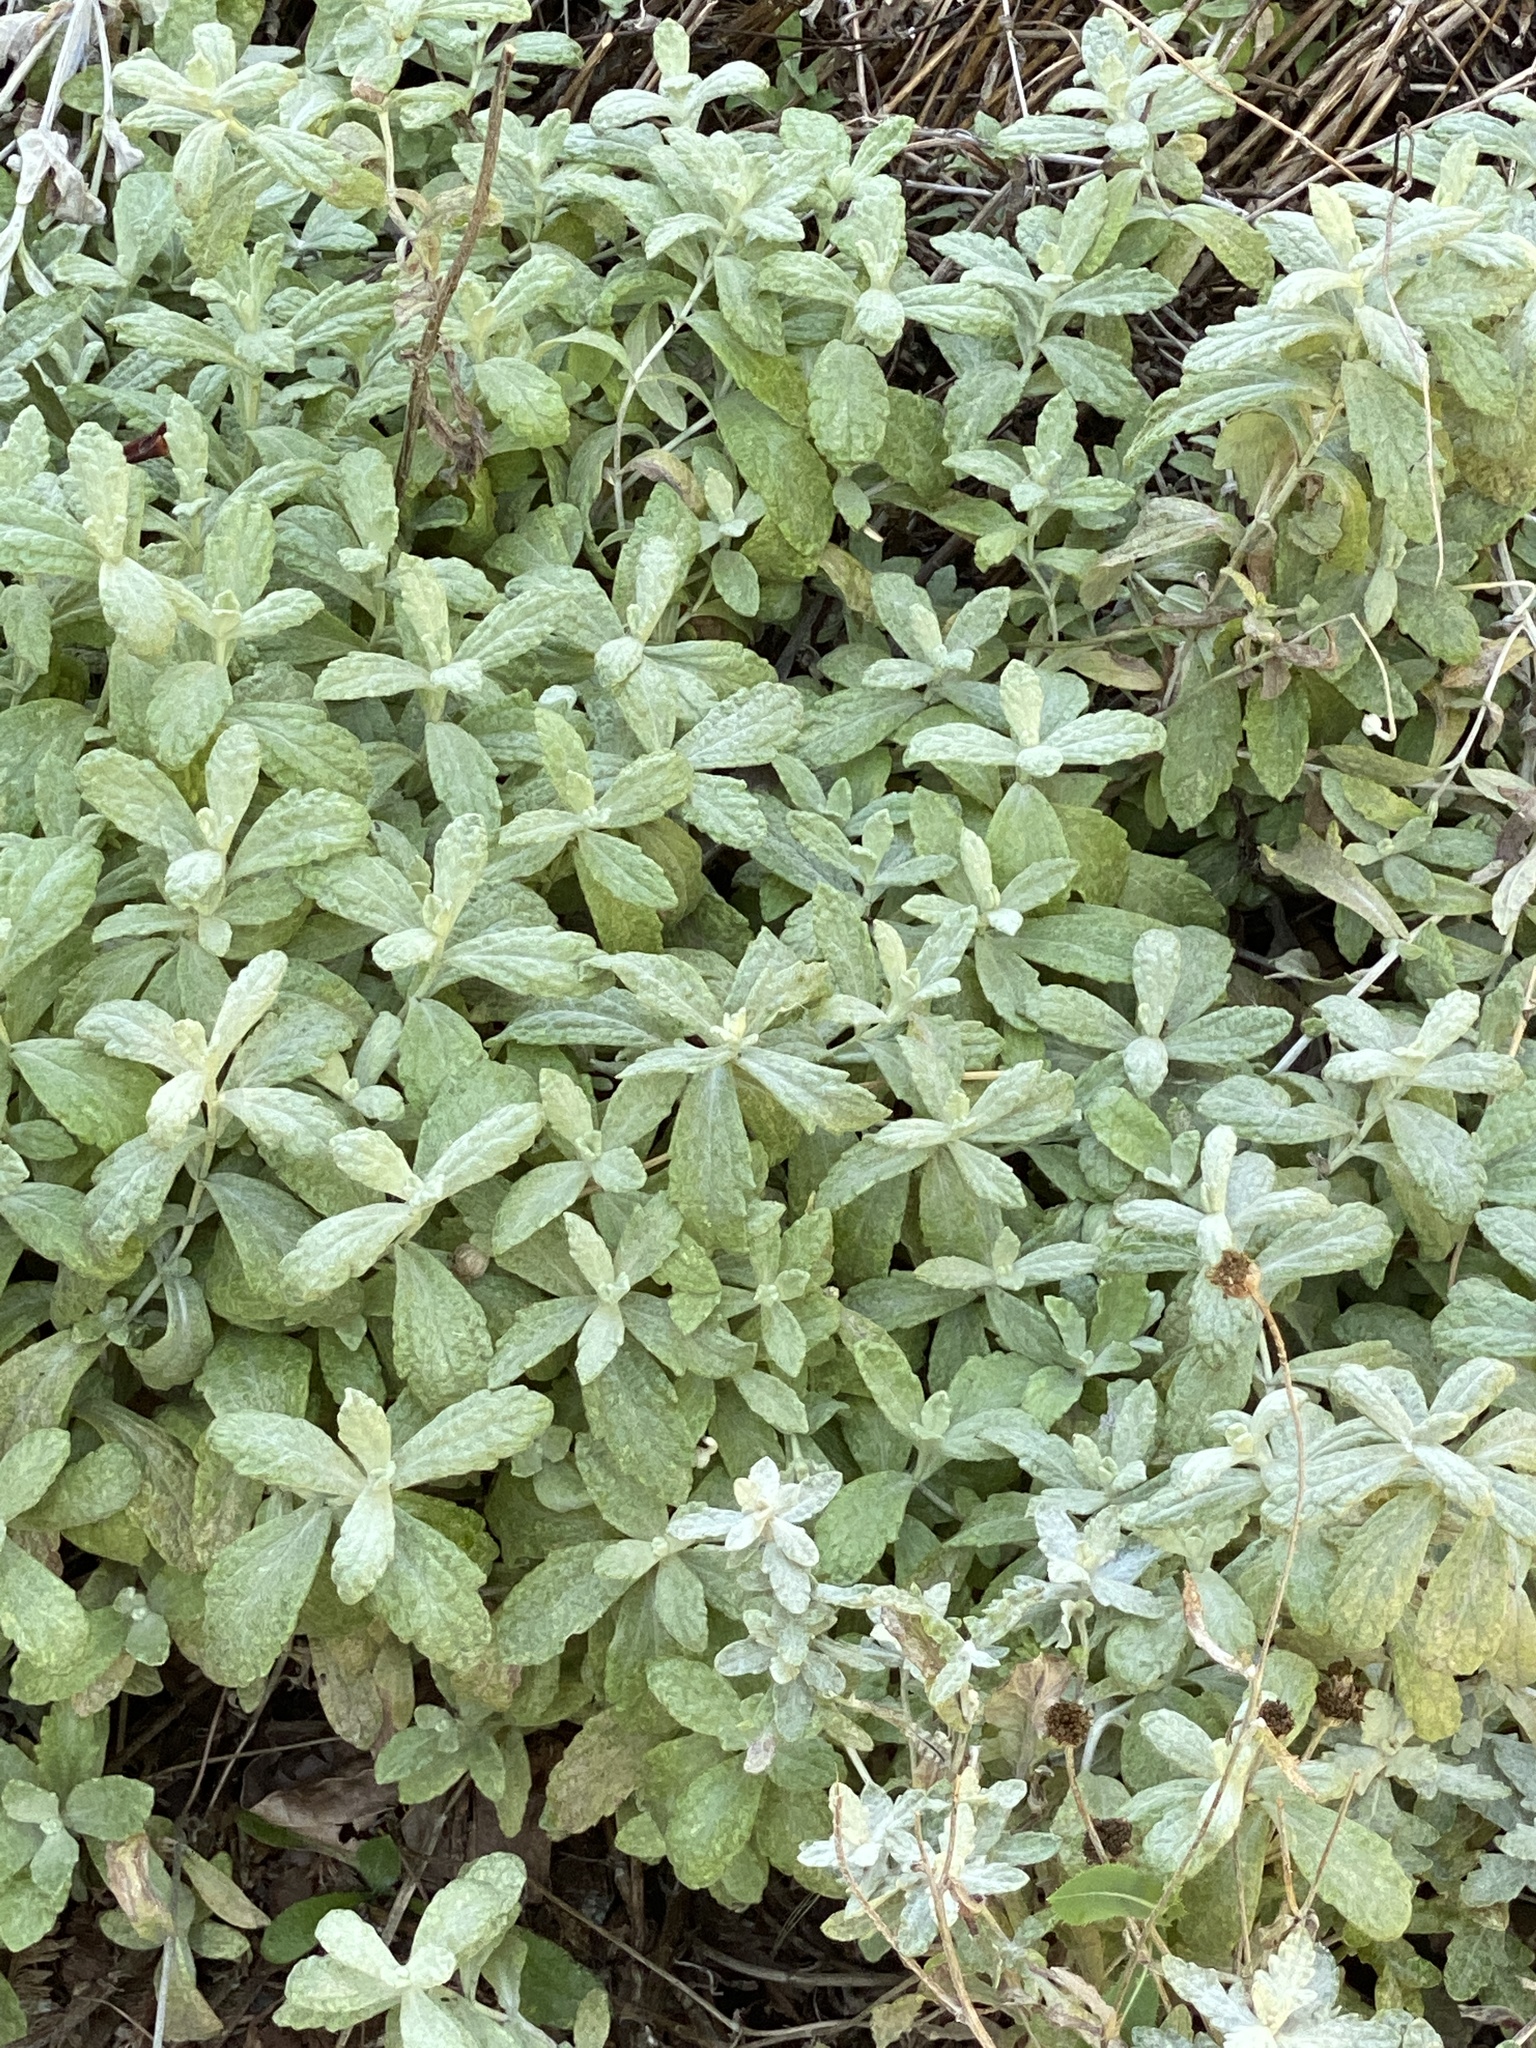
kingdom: Plantae
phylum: Tracheophyta
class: Magnoliopsida
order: Asterales
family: Asteraceae
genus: Eriophyllum
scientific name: Eriophyllum lanatum
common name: Common woolly-sunflower
